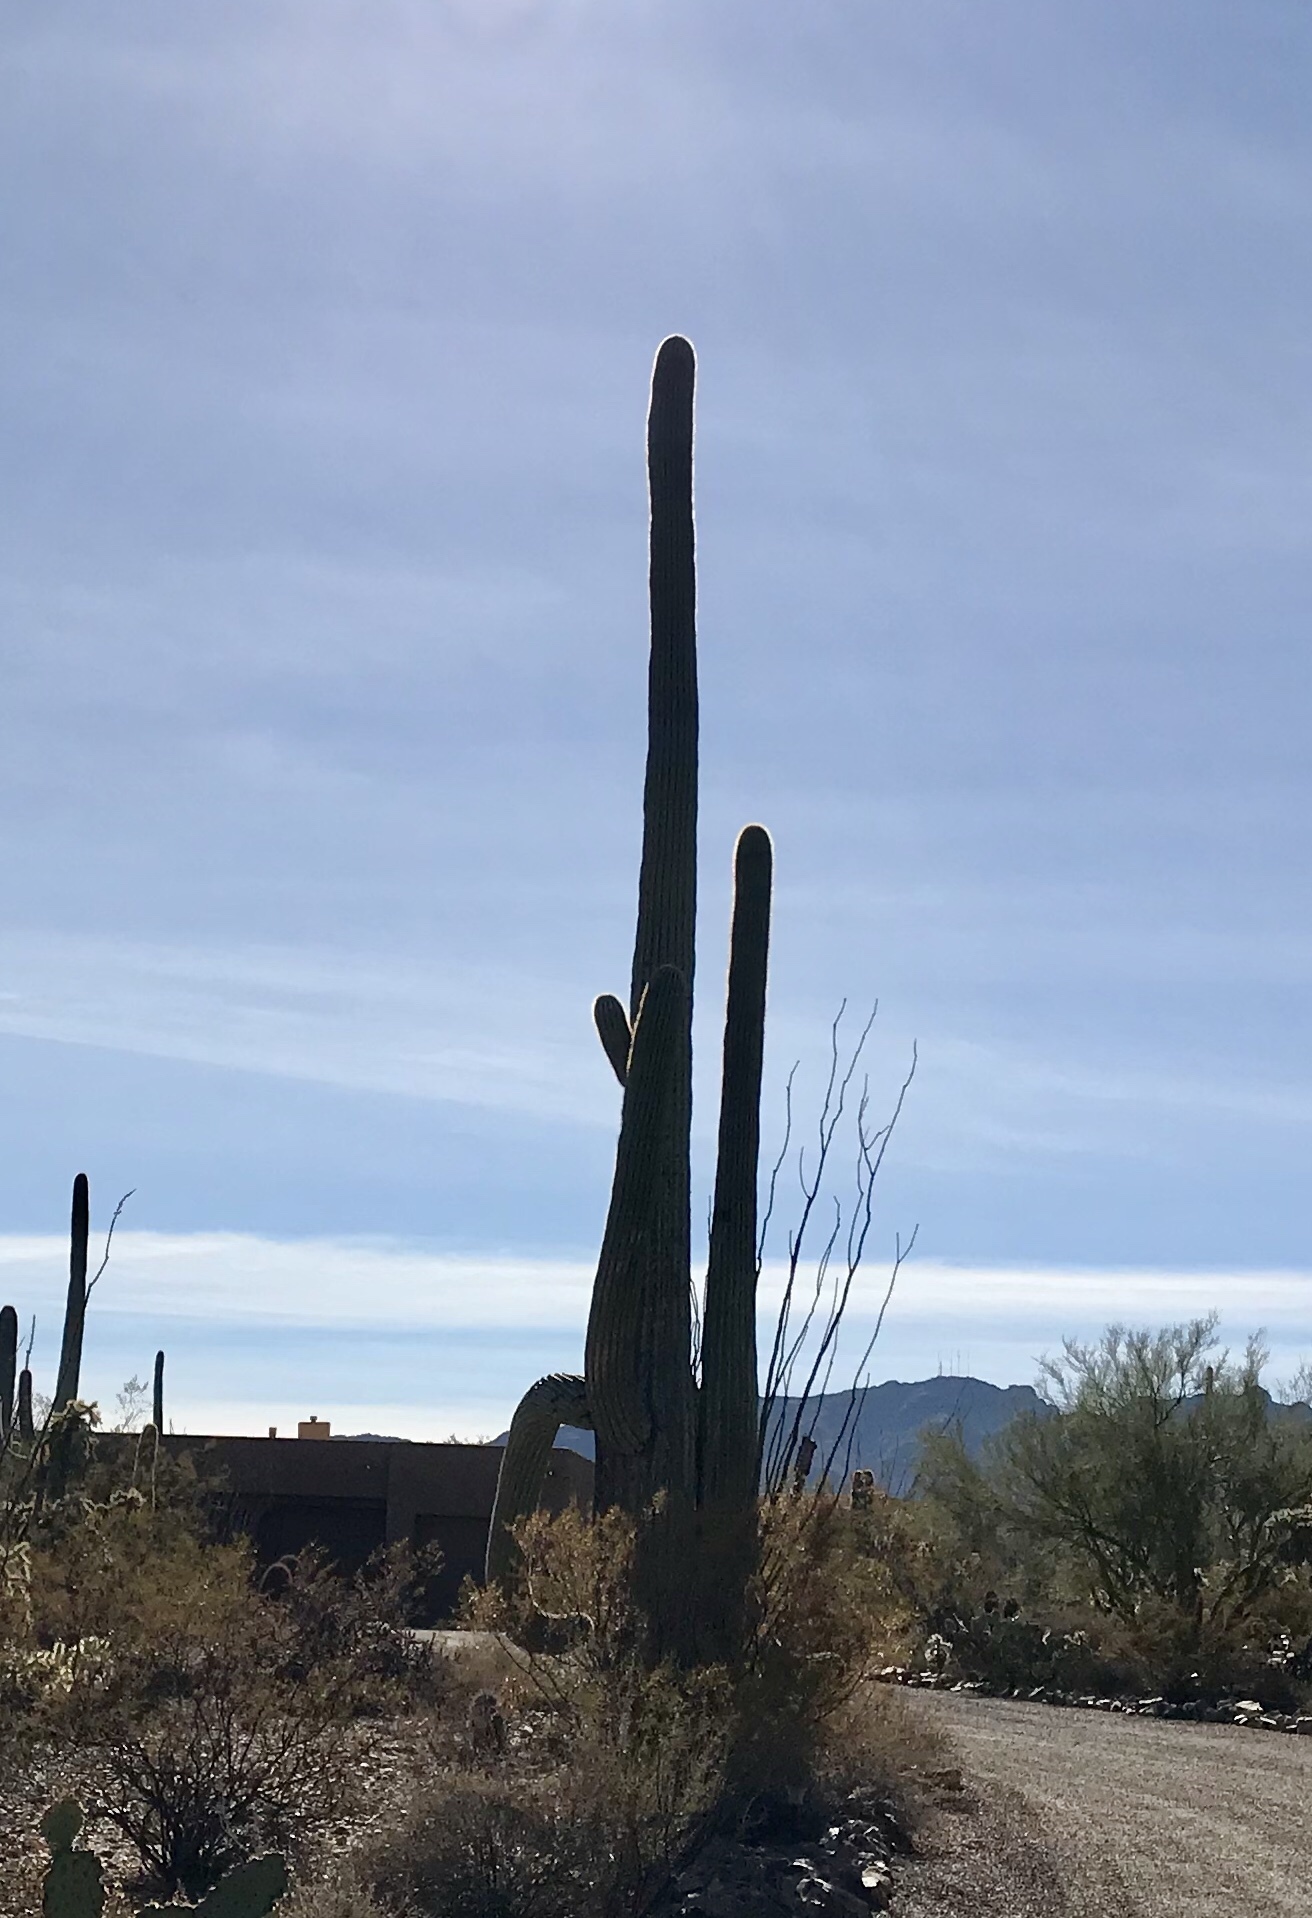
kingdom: Plantae
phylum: Tracheophyta
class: Magnoliopsida
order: Caryophyllales
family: Cactaceae
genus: Carnegiea
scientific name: Carnegiea gigantea
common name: Saguaro
